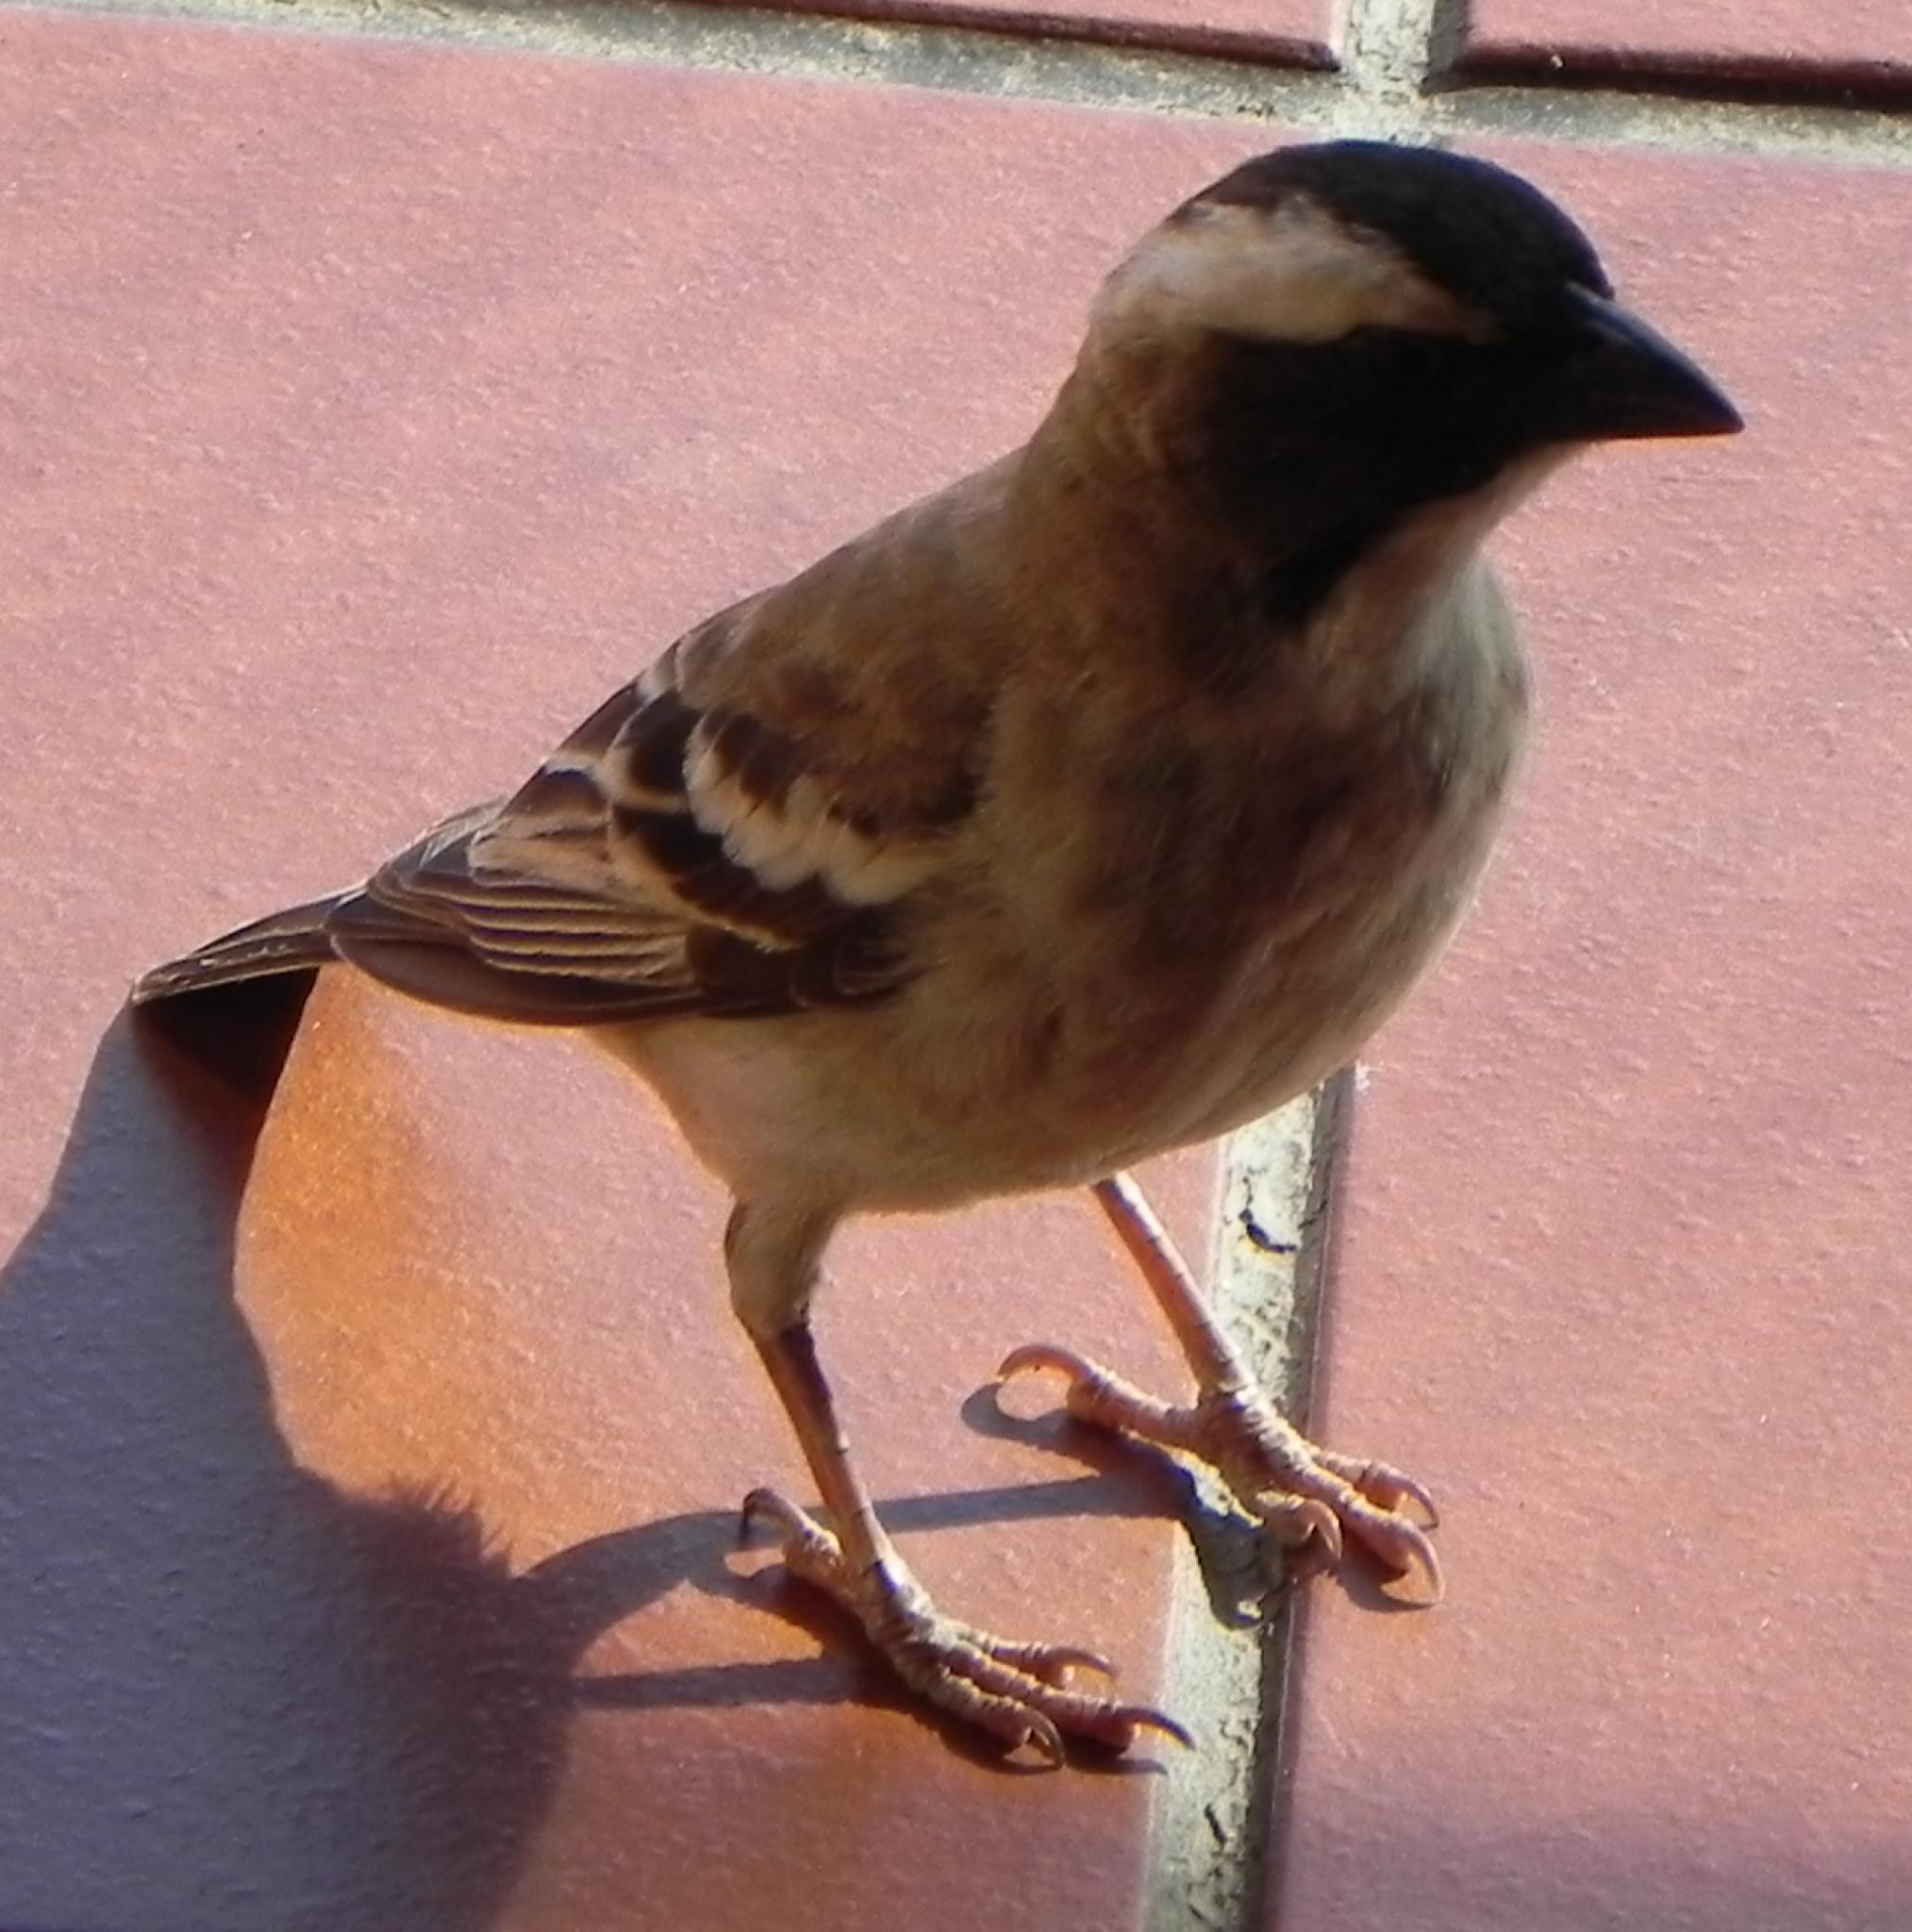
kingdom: Animalia
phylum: Chordata
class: Aves
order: Passeriformes
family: Passeridae
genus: Plocepasser
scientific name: Plocepasser mahali
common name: White-browed sparrow-weaver
